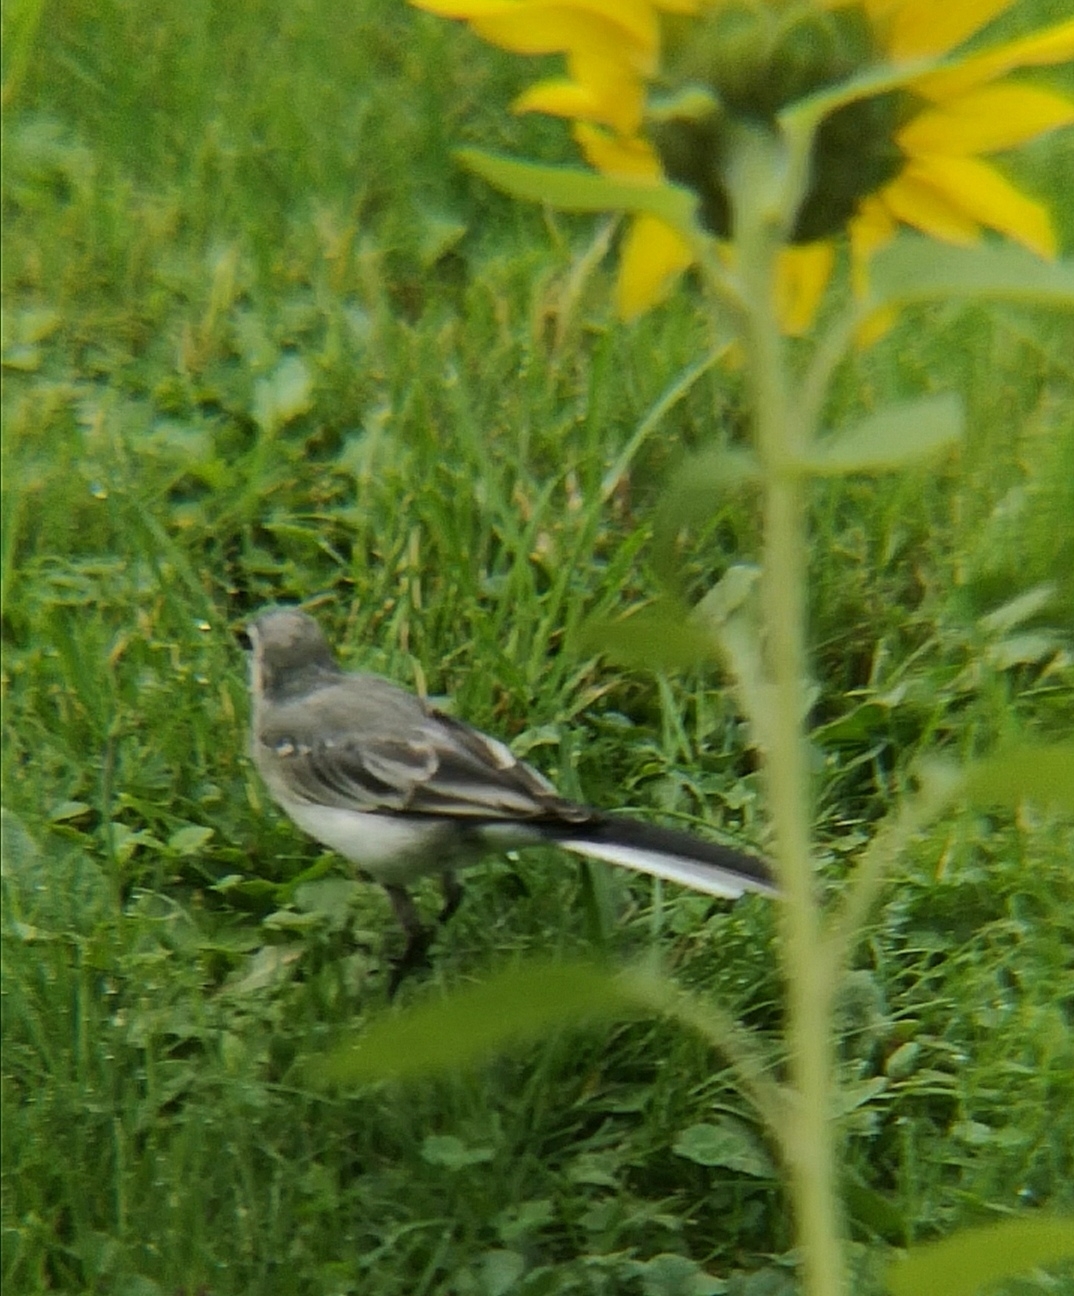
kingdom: Animalia
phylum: Chordata
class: Aves
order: Passeriformes
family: Motacillidae
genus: Motacilla
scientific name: Motacilla alba
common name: White wagtail
